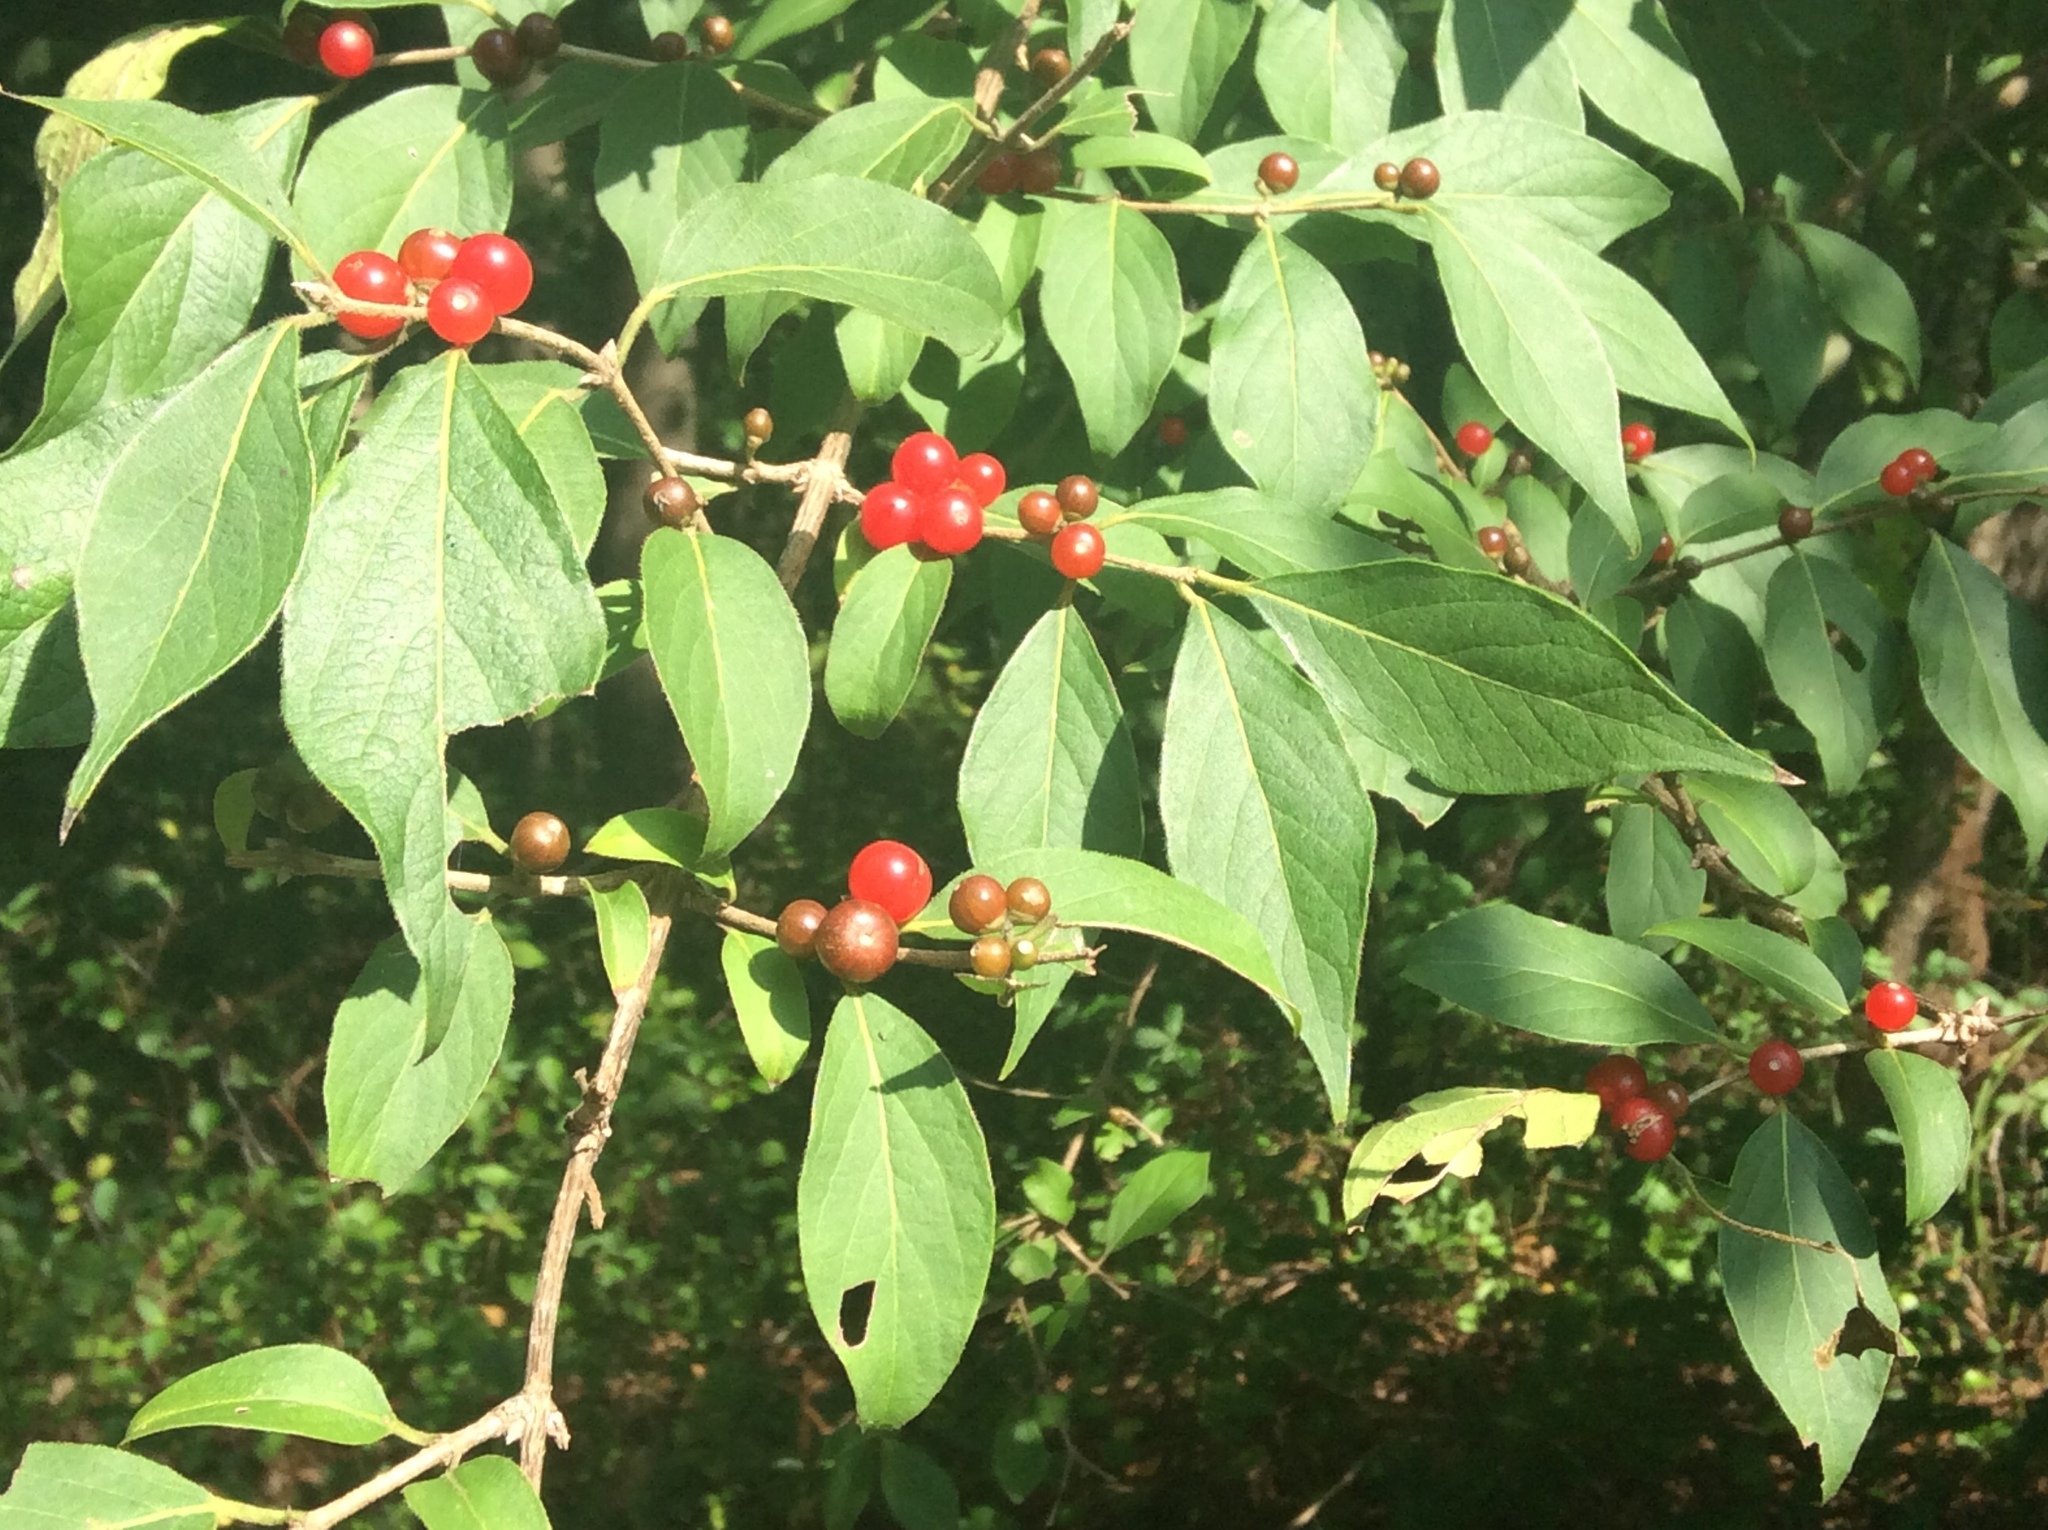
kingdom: Plantae
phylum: Tracheophyta
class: Magnoliopsida
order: Dipsacales
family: Caprifoliaceae
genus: Lonicera
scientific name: Lonicera maackii
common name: Amur honeysuckle
